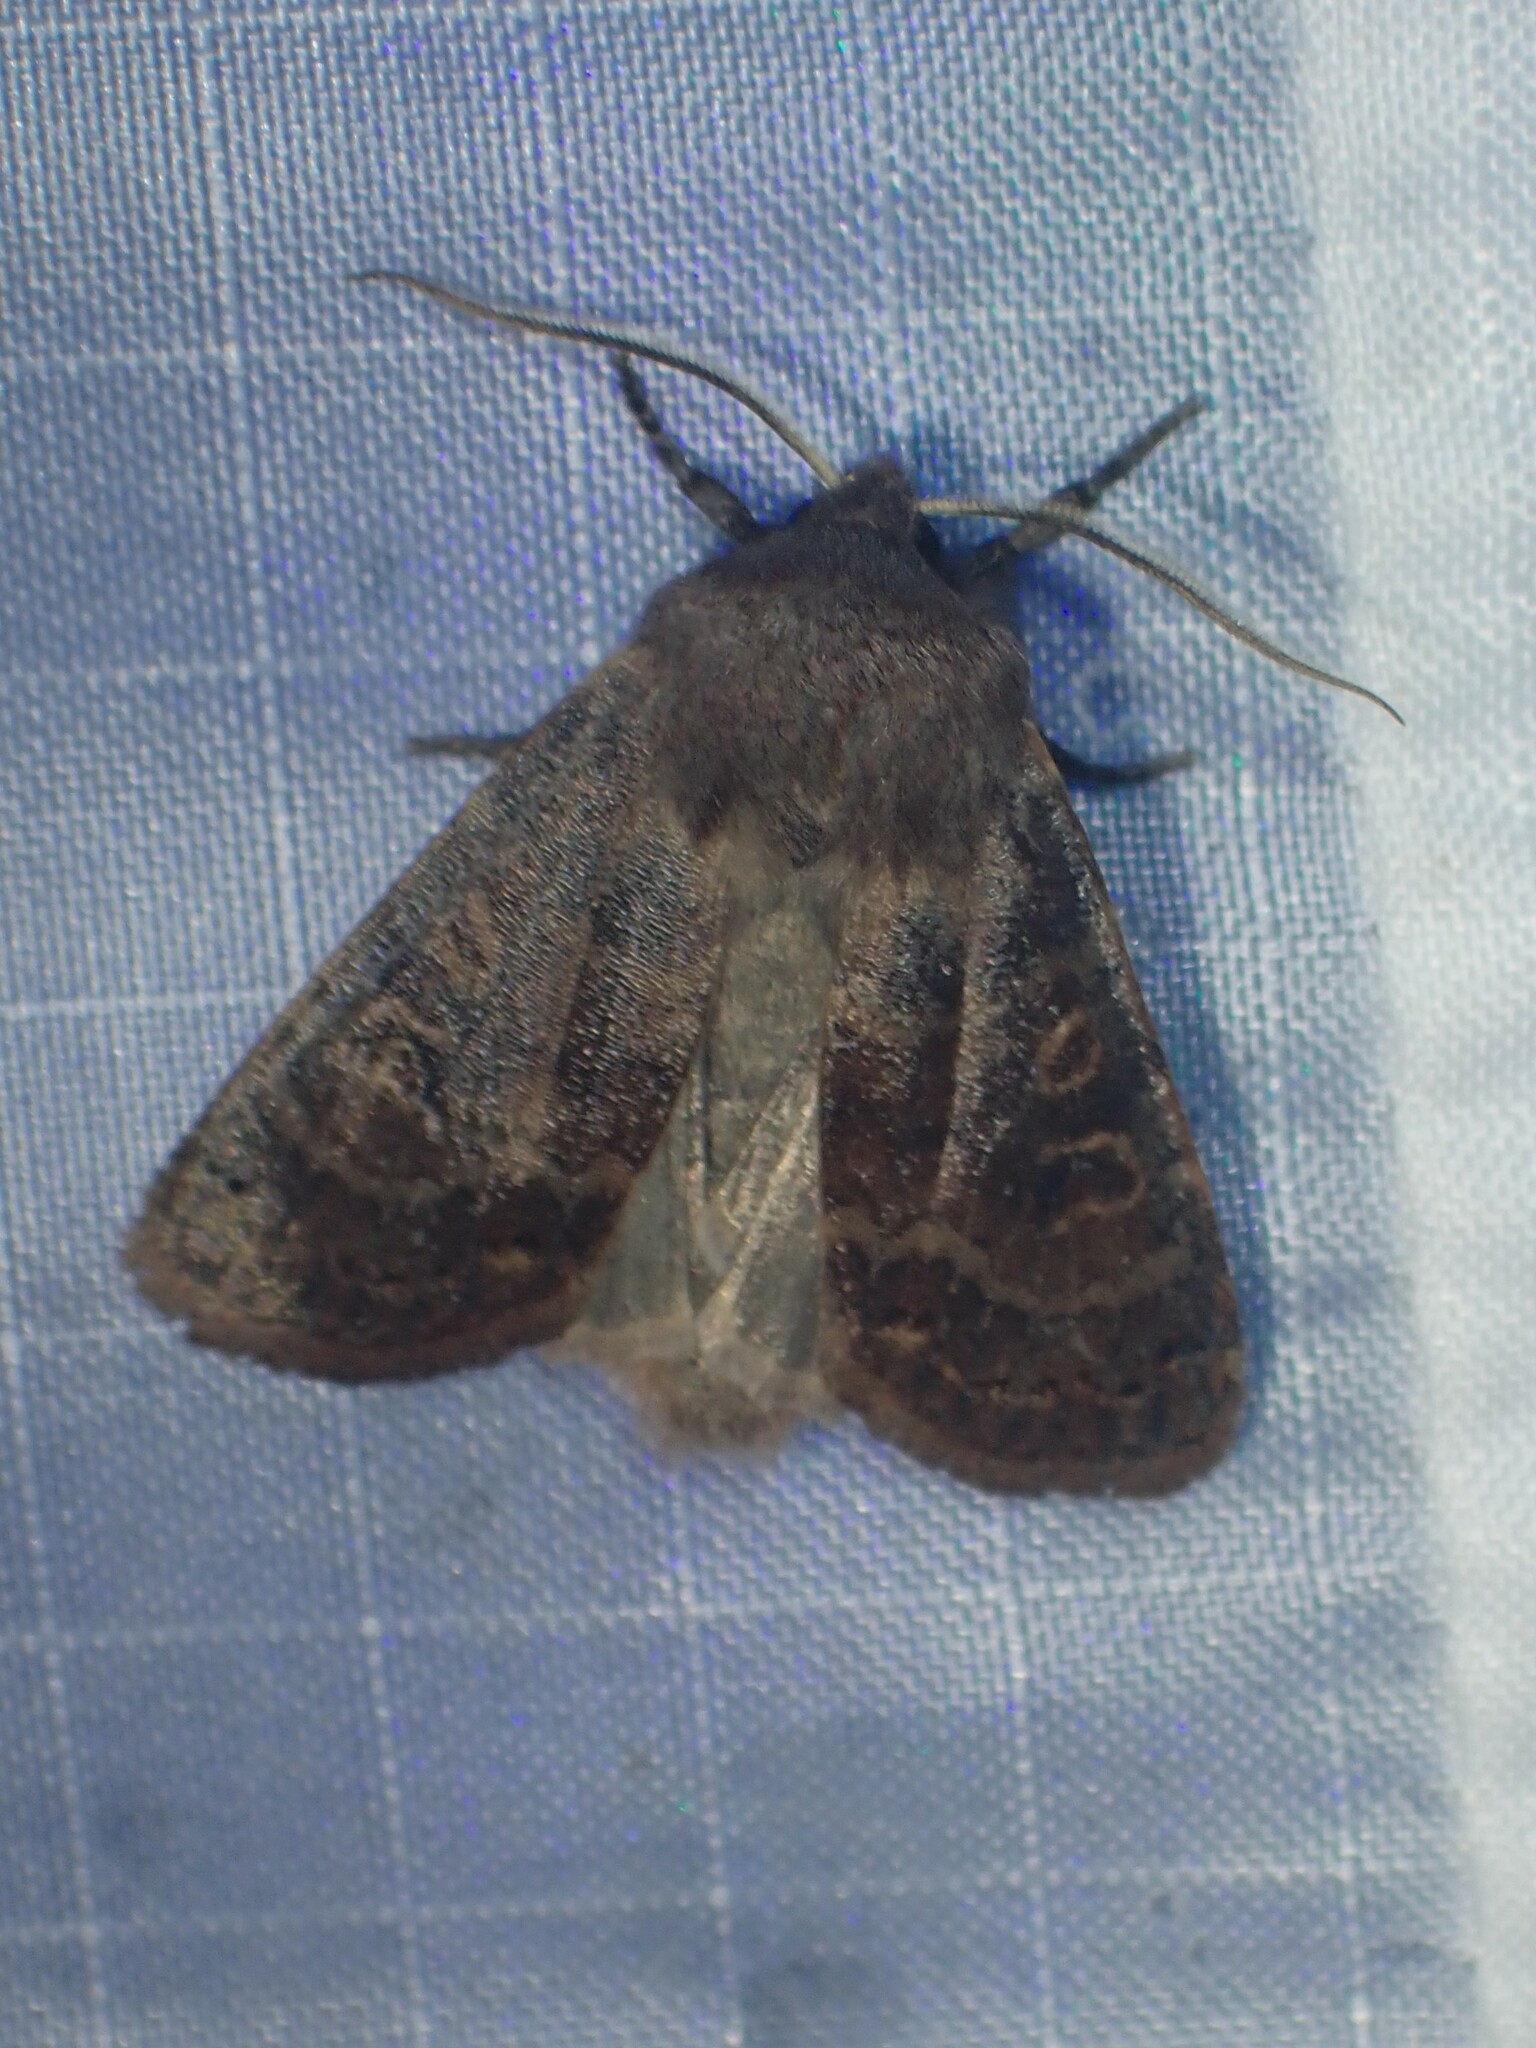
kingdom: Animalia
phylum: Arthropoda
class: Insecta
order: Lepidoptera
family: Noctuidae
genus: Homoglaea
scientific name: Homoglaea hircina
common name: Goat sallow
